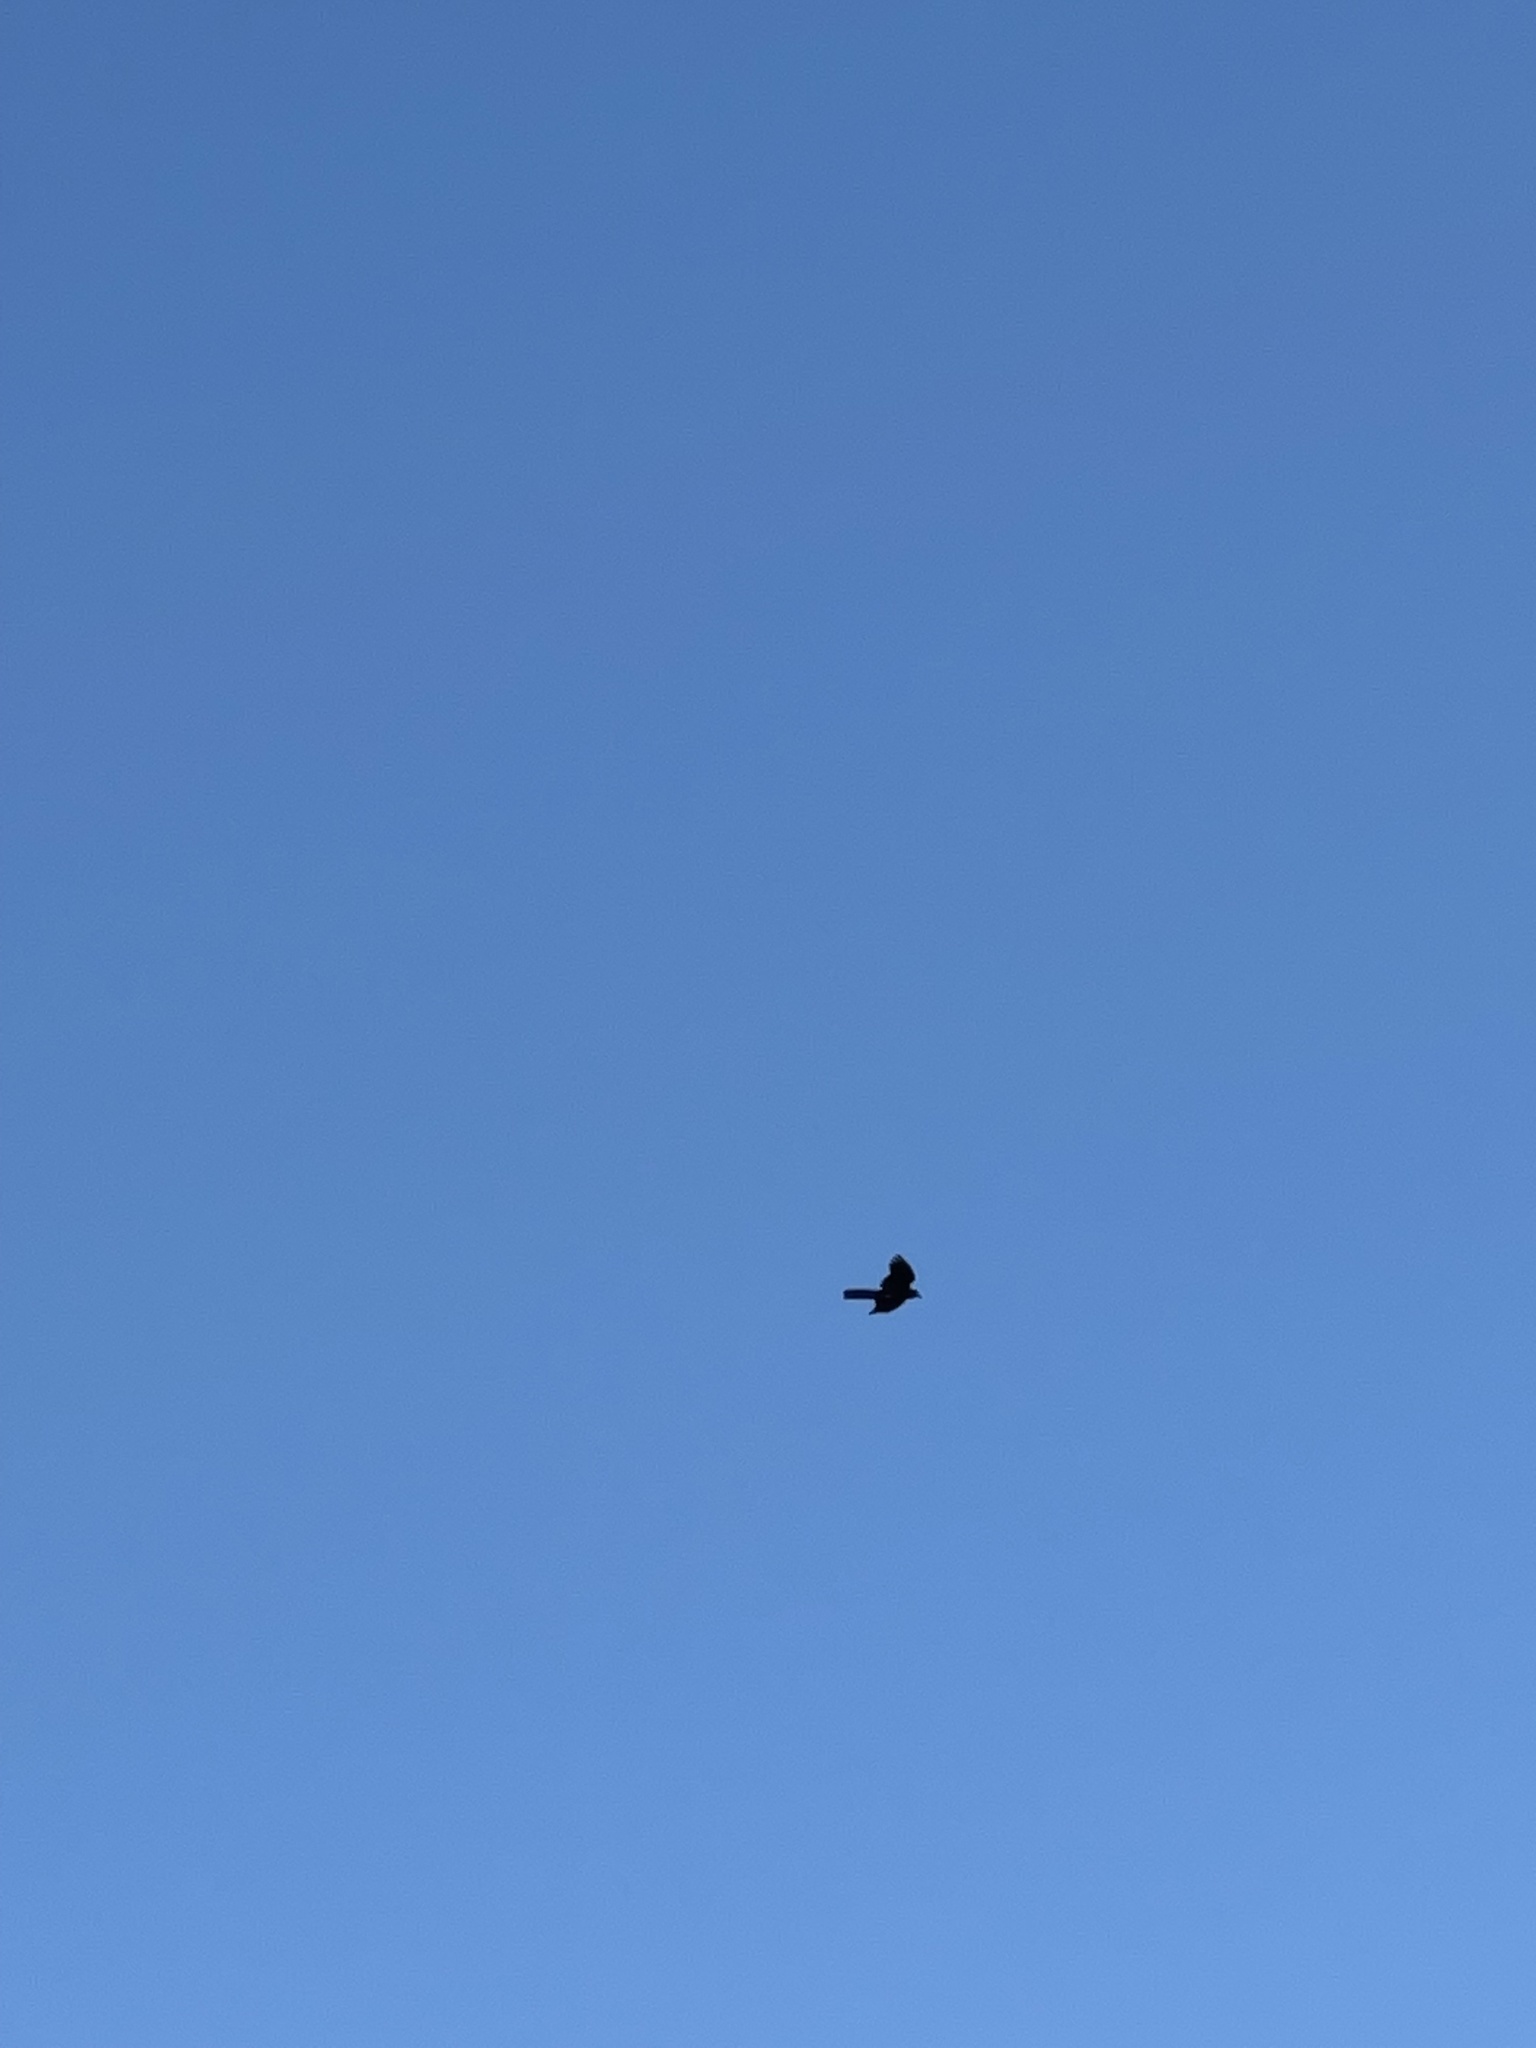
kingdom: Animalia
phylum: Chordata
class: Aves
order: Passeriformes
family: Icteridae
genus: Quiscalus
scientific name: Quiscalus major
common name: Boat-tailed grackle
